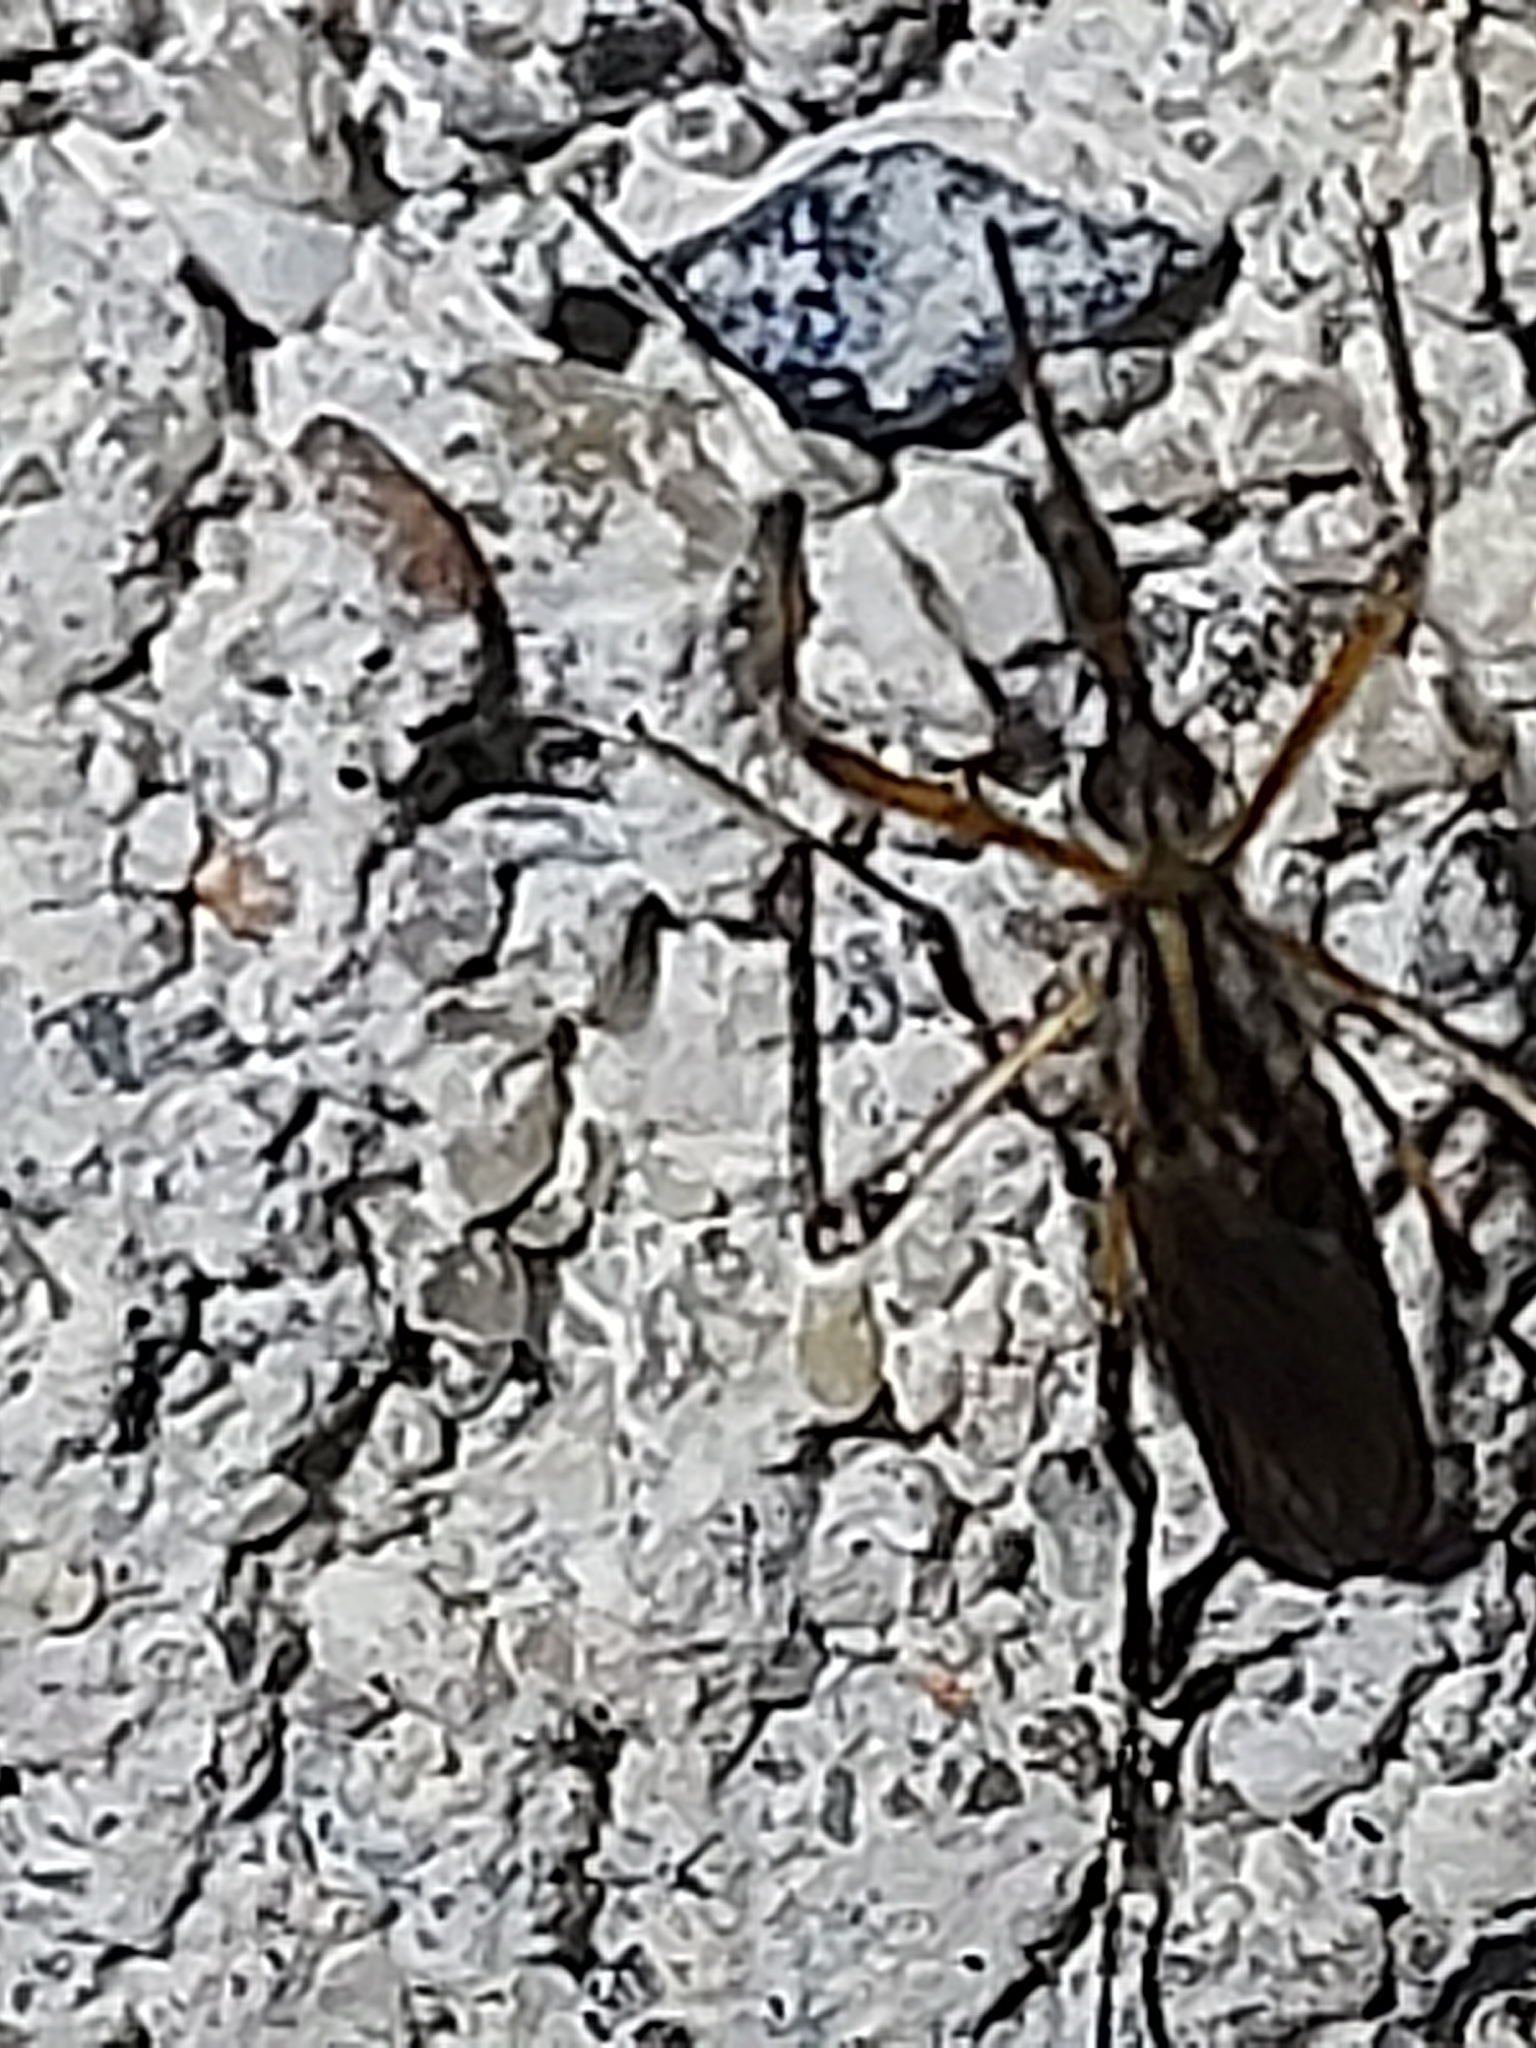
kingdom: Animalia
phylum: Arthropoda
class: Insecta
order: Diptera
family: Culicidae
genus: Psorophora
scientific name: Psorophora ciliata
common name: Gallinipper
